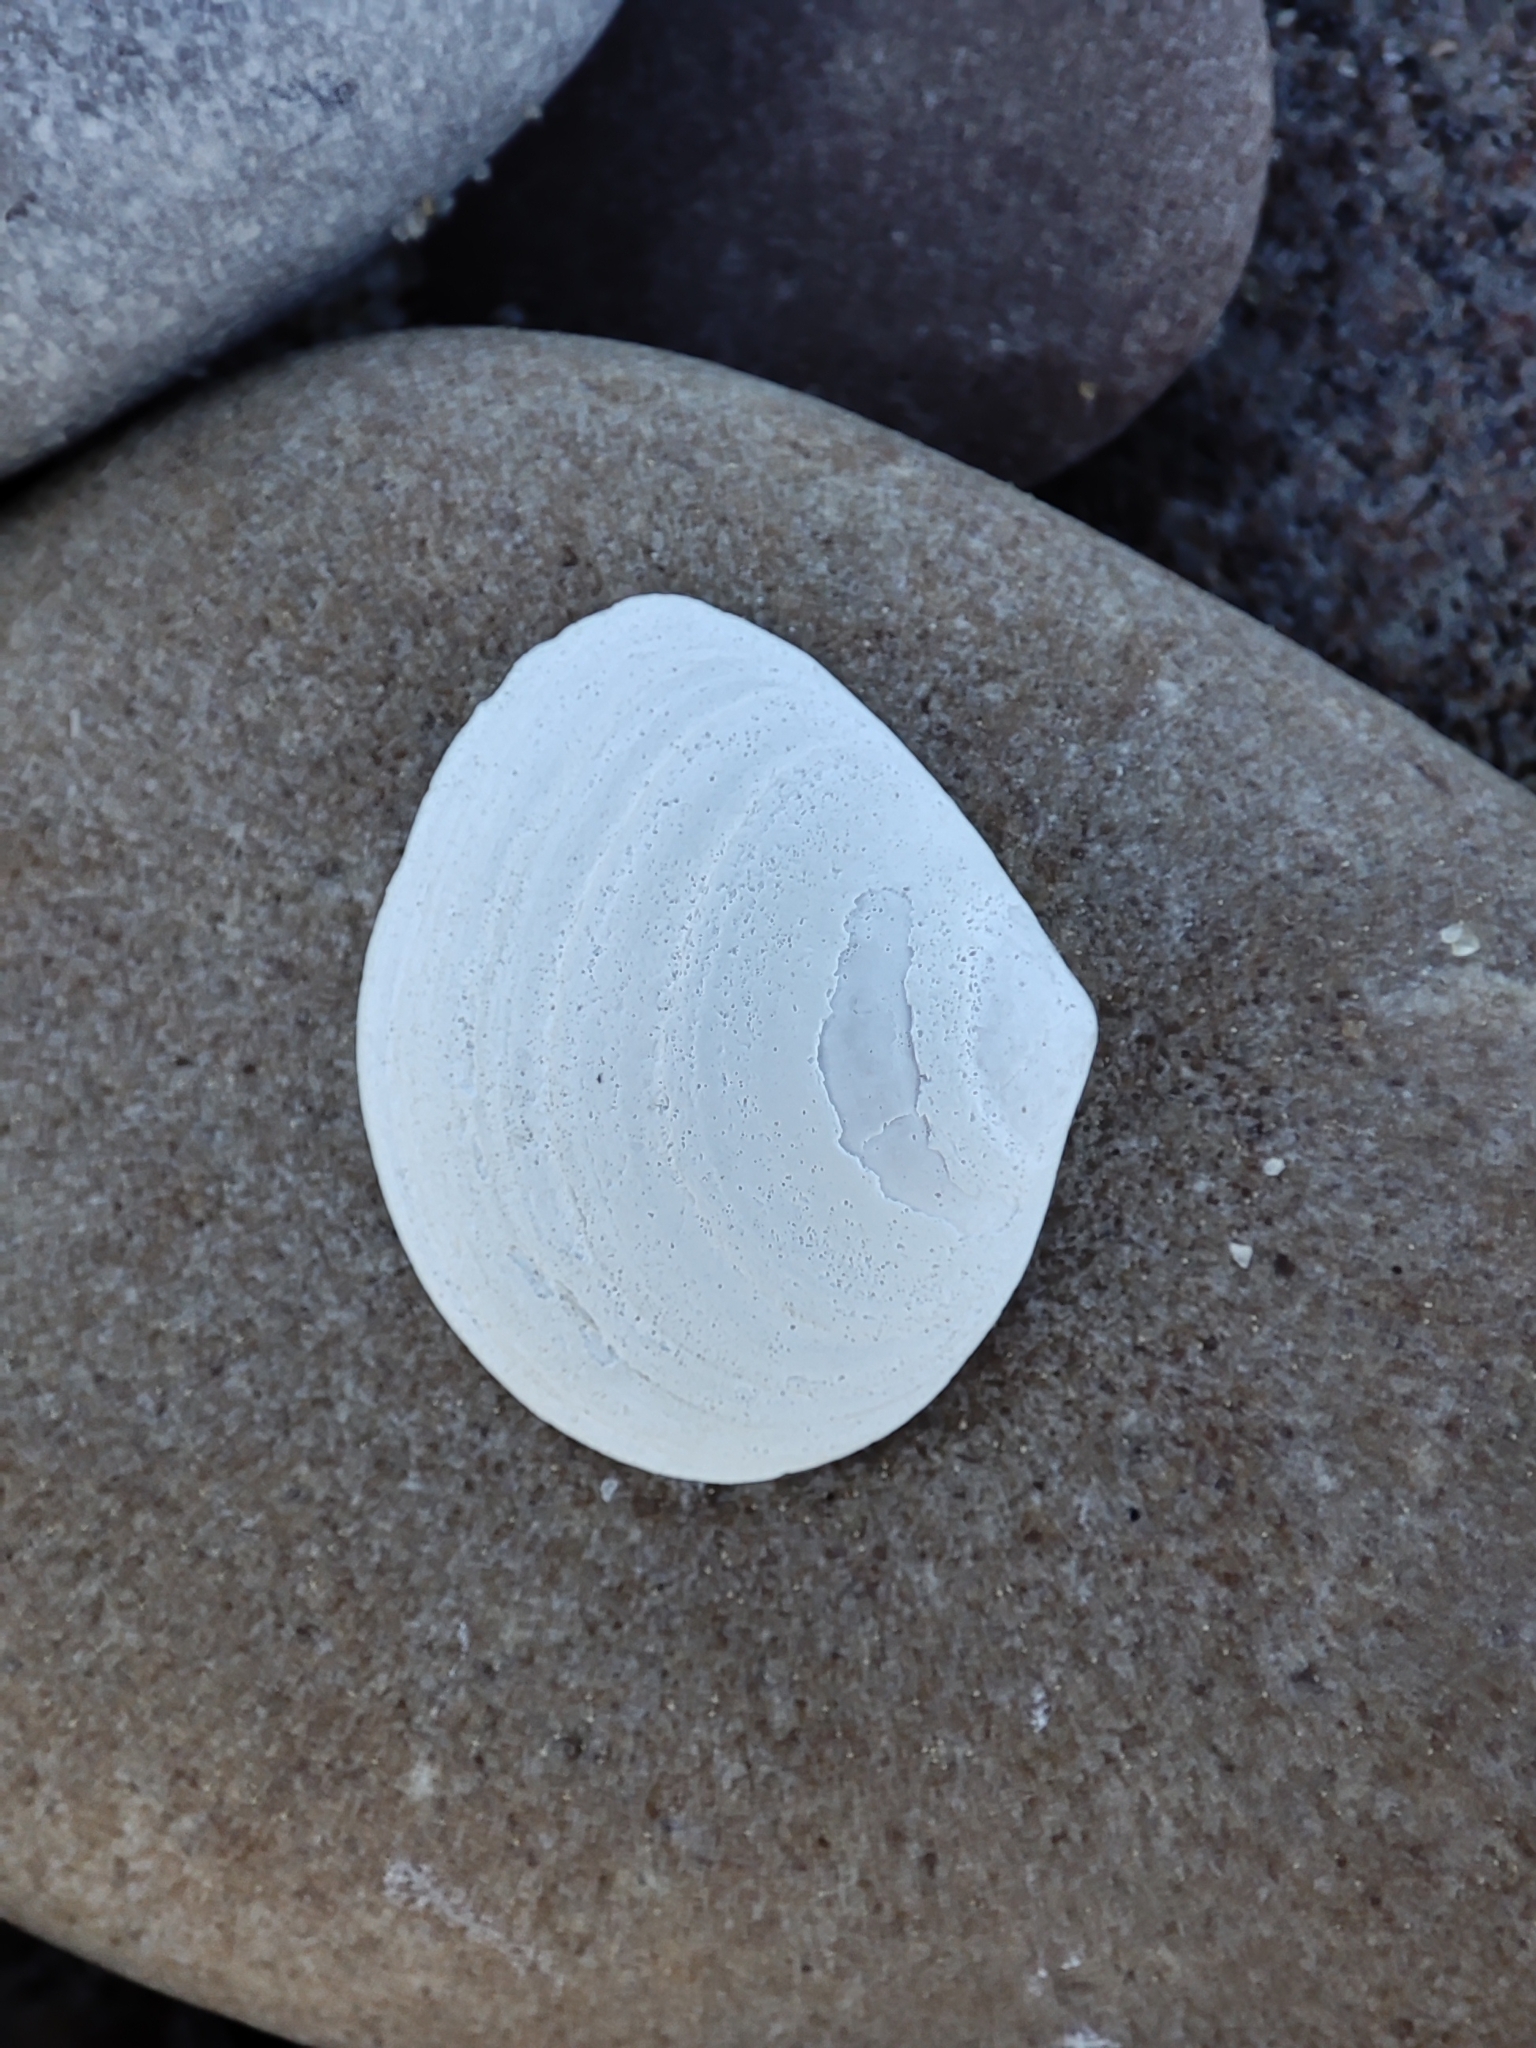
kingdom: Animalia
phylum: Mollusca
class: Bivalvia
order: Cardiida
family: Tellinidae
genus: Macoma
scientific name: Macoma balthica
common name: Baltic tellin
